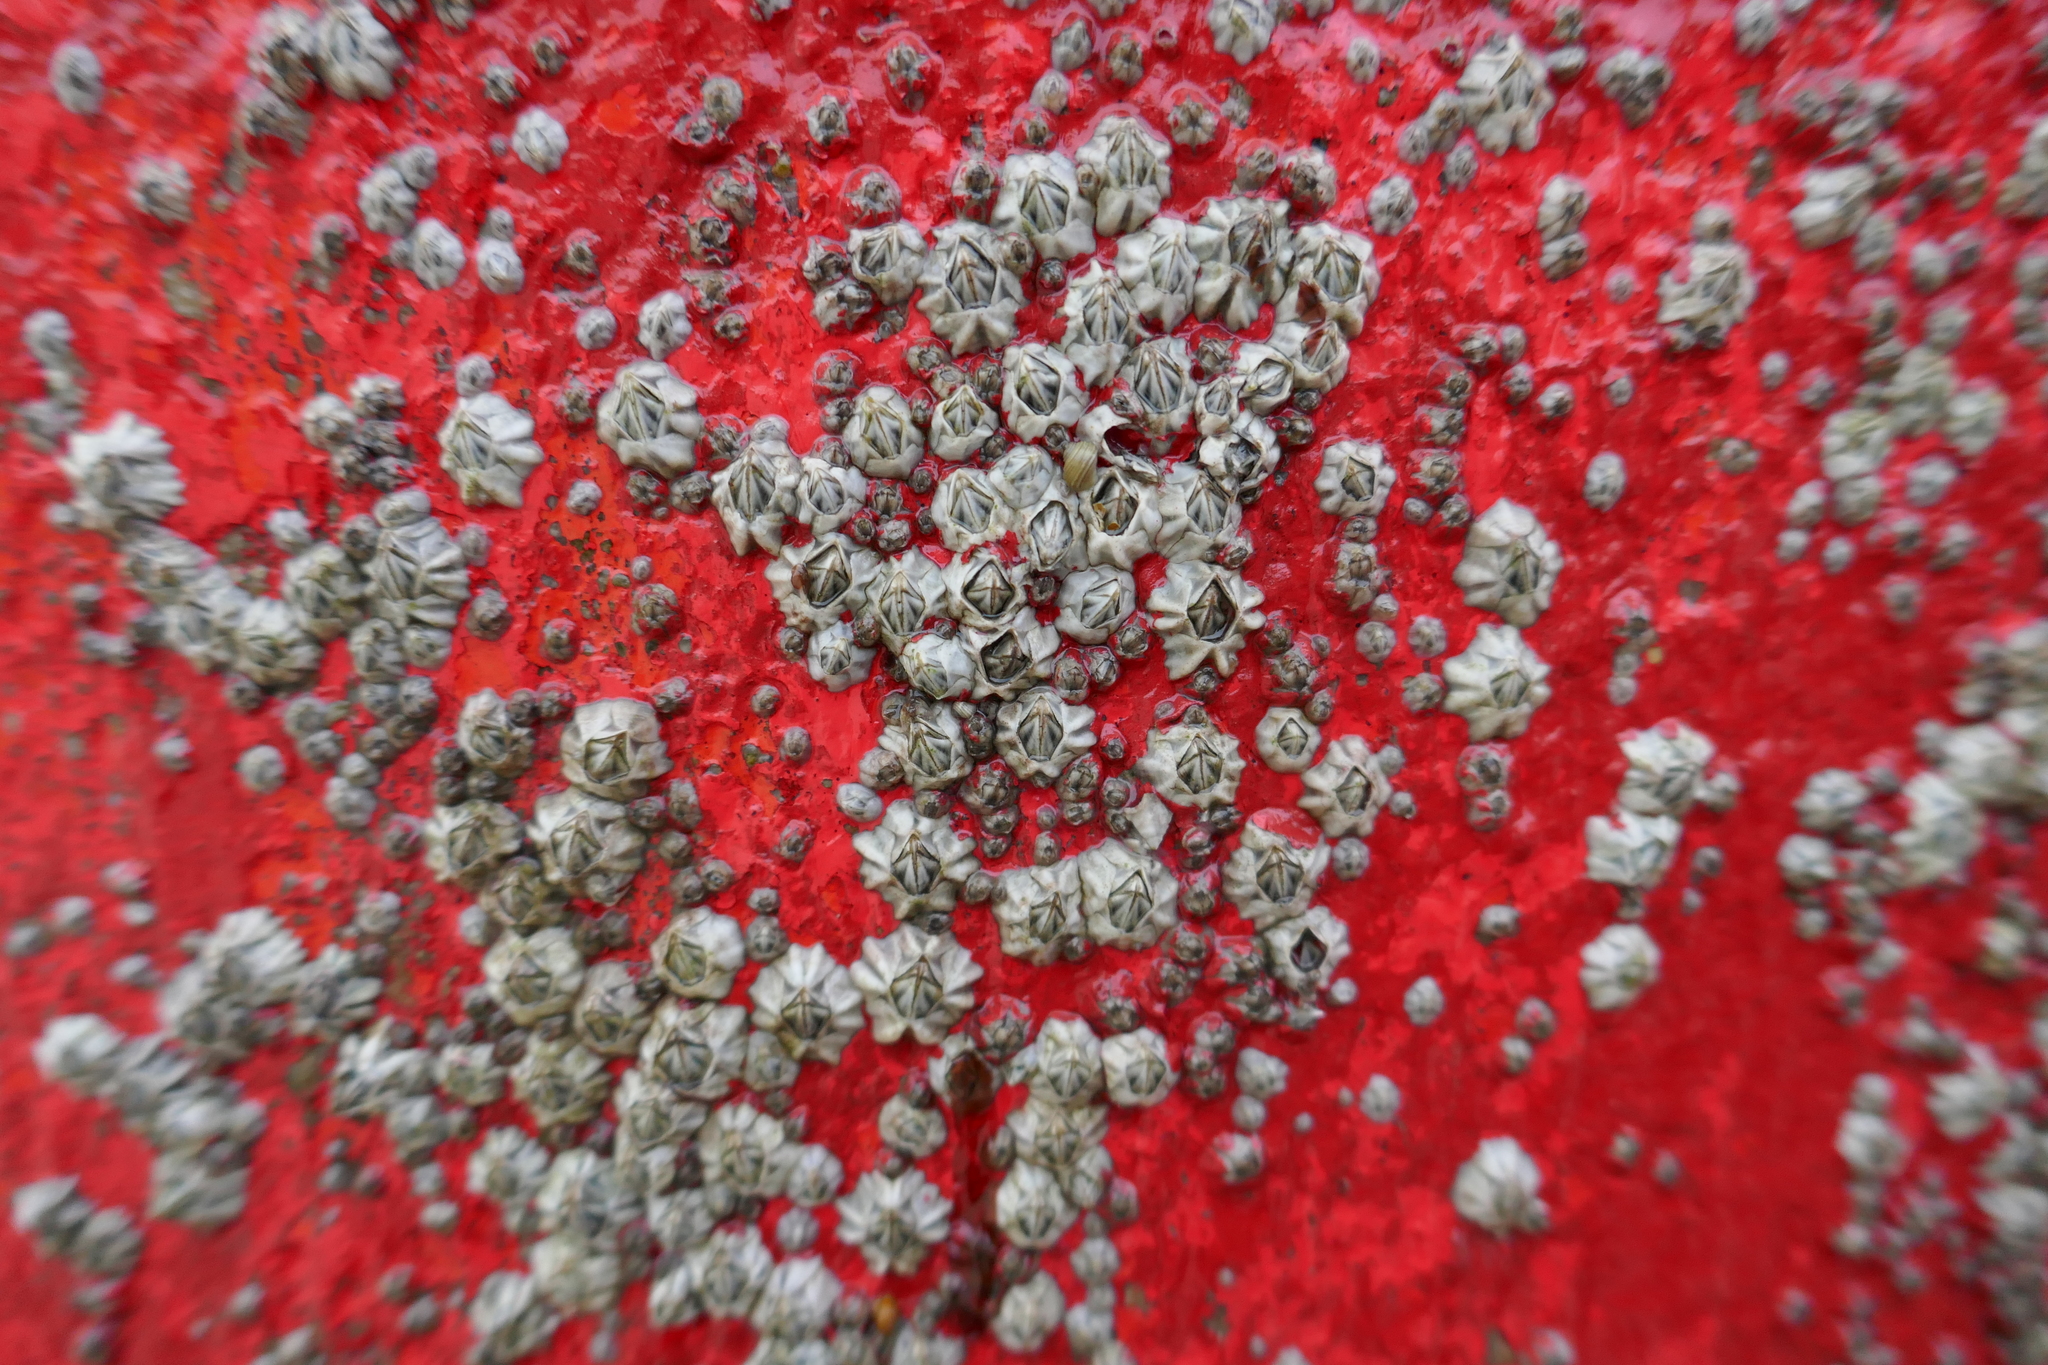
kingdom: Animalia
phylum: Arthropoda
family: Elminiidae
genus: Austrominius
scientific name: Austrominius modestus
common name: Australasian barnacle
